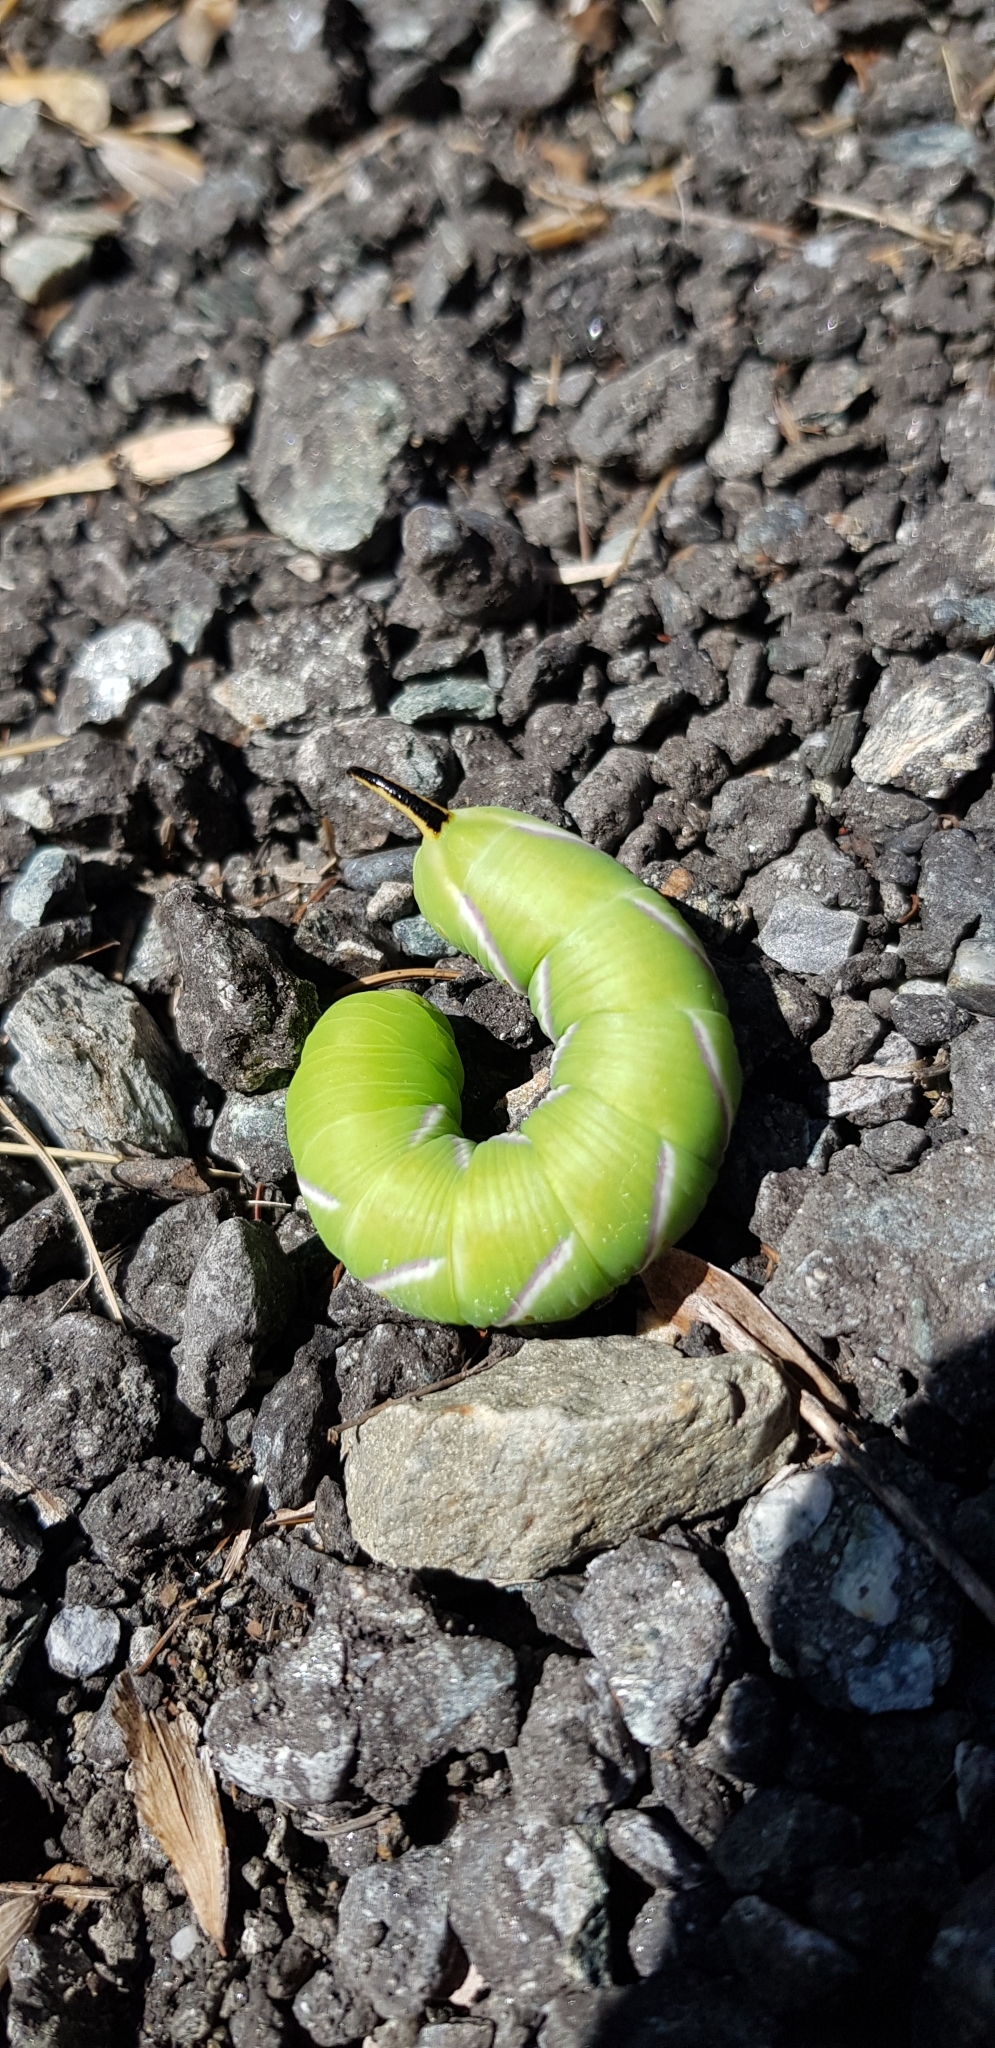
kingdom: Animalia
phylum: Arthropoda
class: Insecta
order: Lepidoptera
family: Sphingidae
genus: Sphinx
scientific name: Sphinx ligustri
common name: Privet hawk-moth
